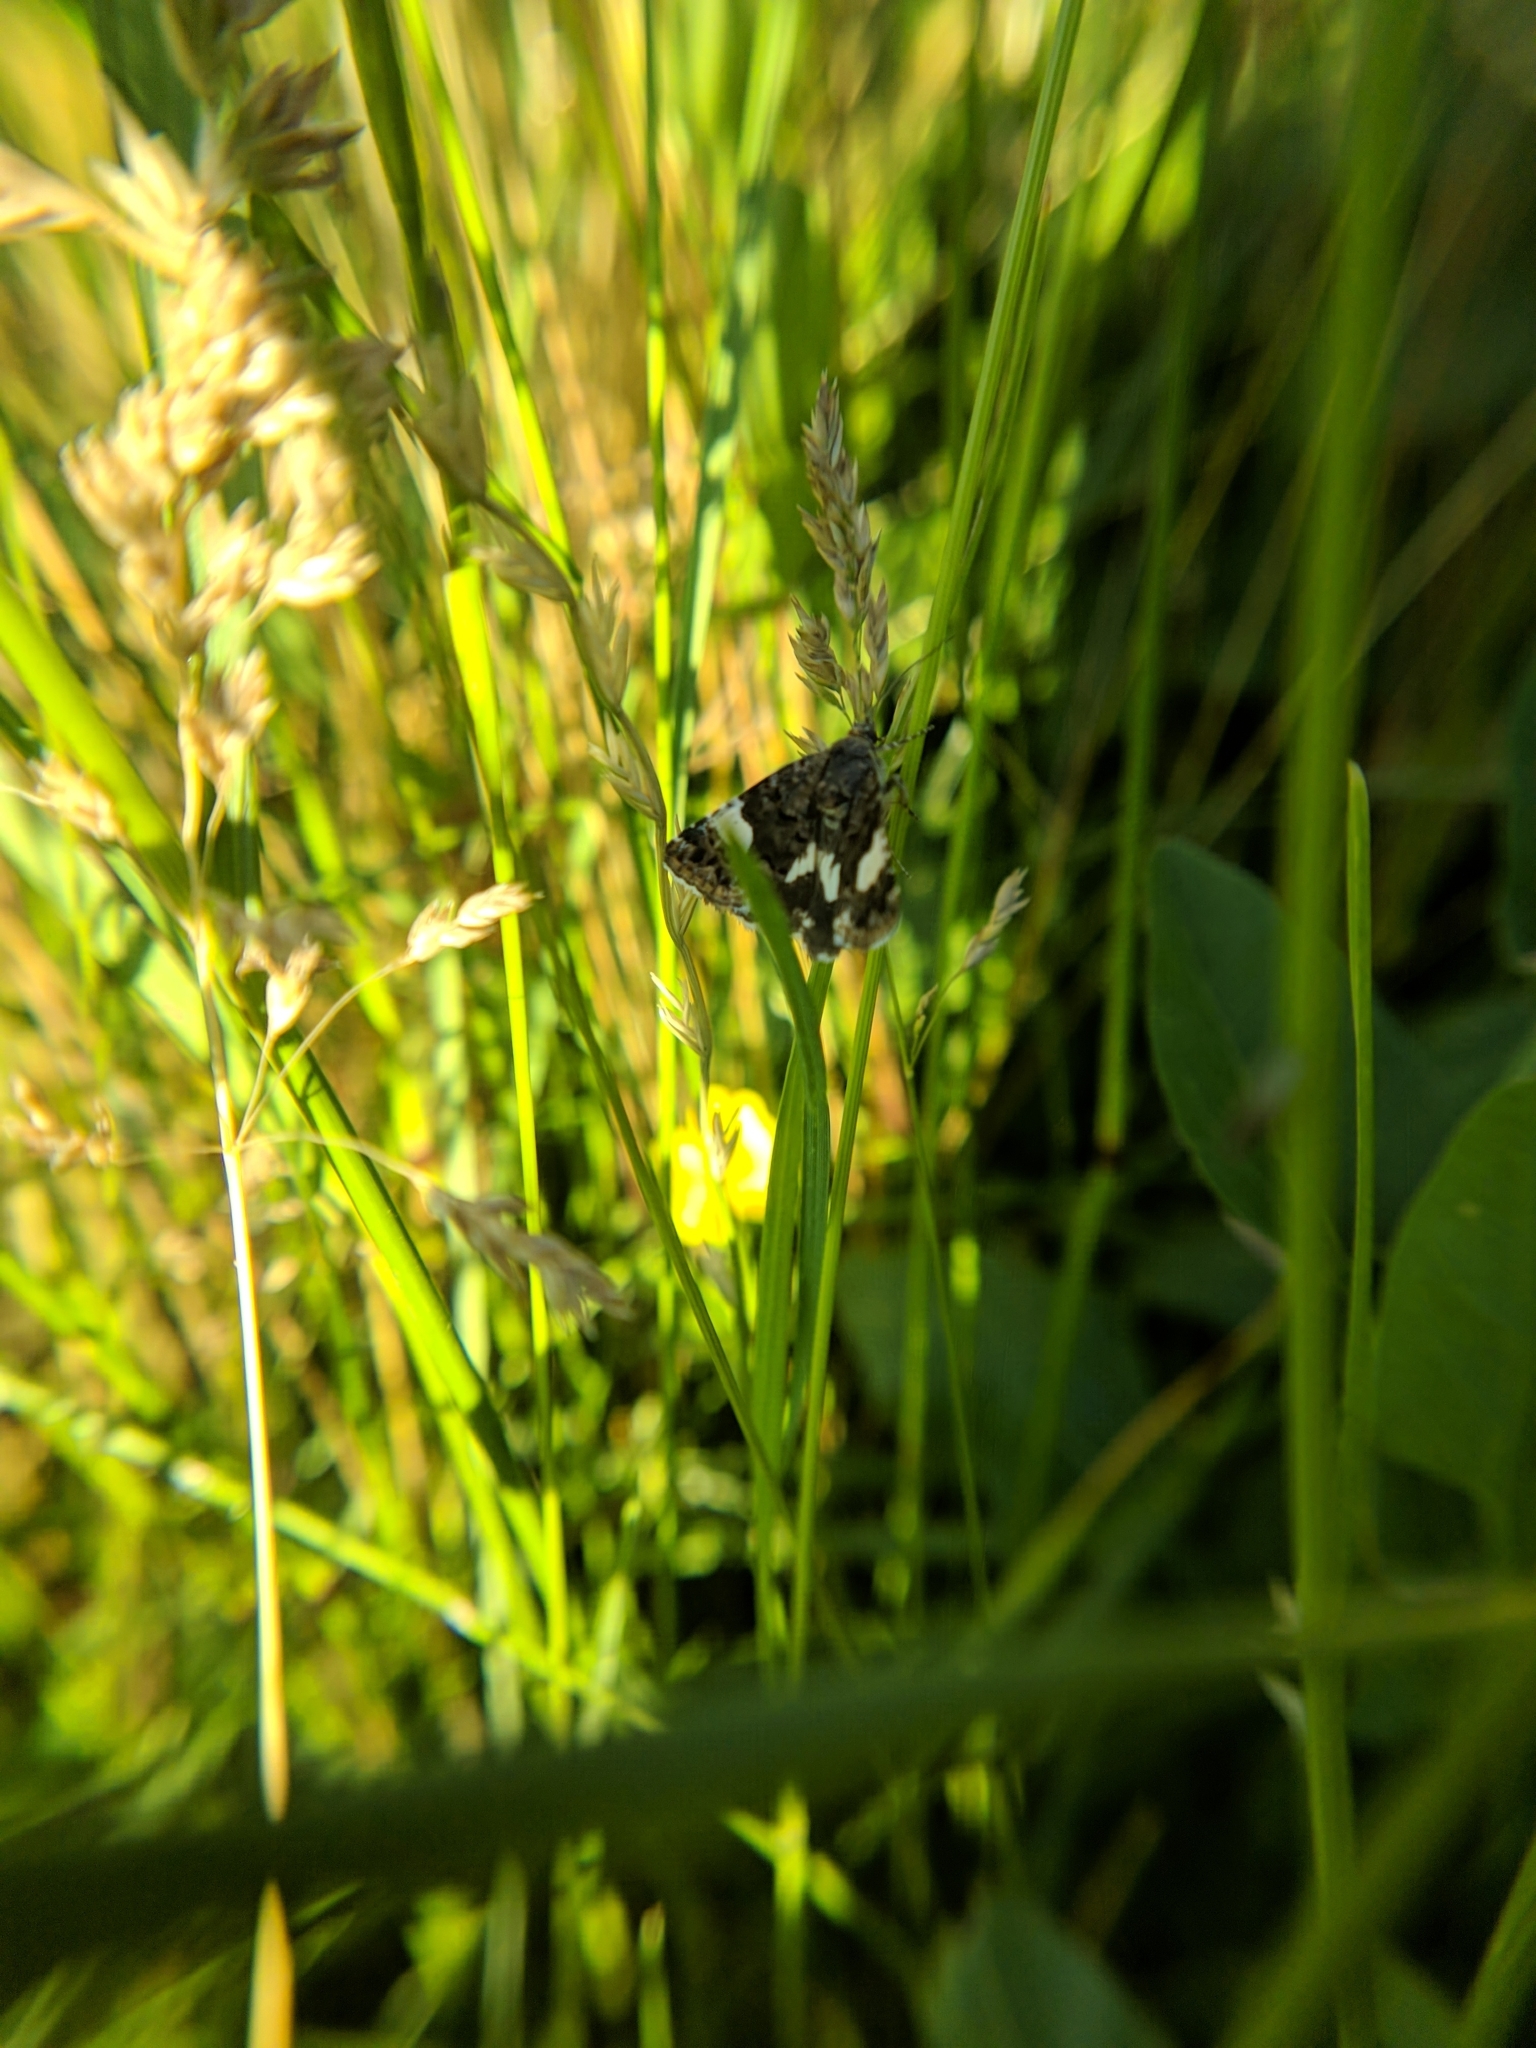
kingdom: Animalia
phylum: Arthropoda
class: Insecta
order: Lepidoptera
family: Erebidae
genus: Tyta
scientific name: Tyta luctuosa
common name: Four-spotted
